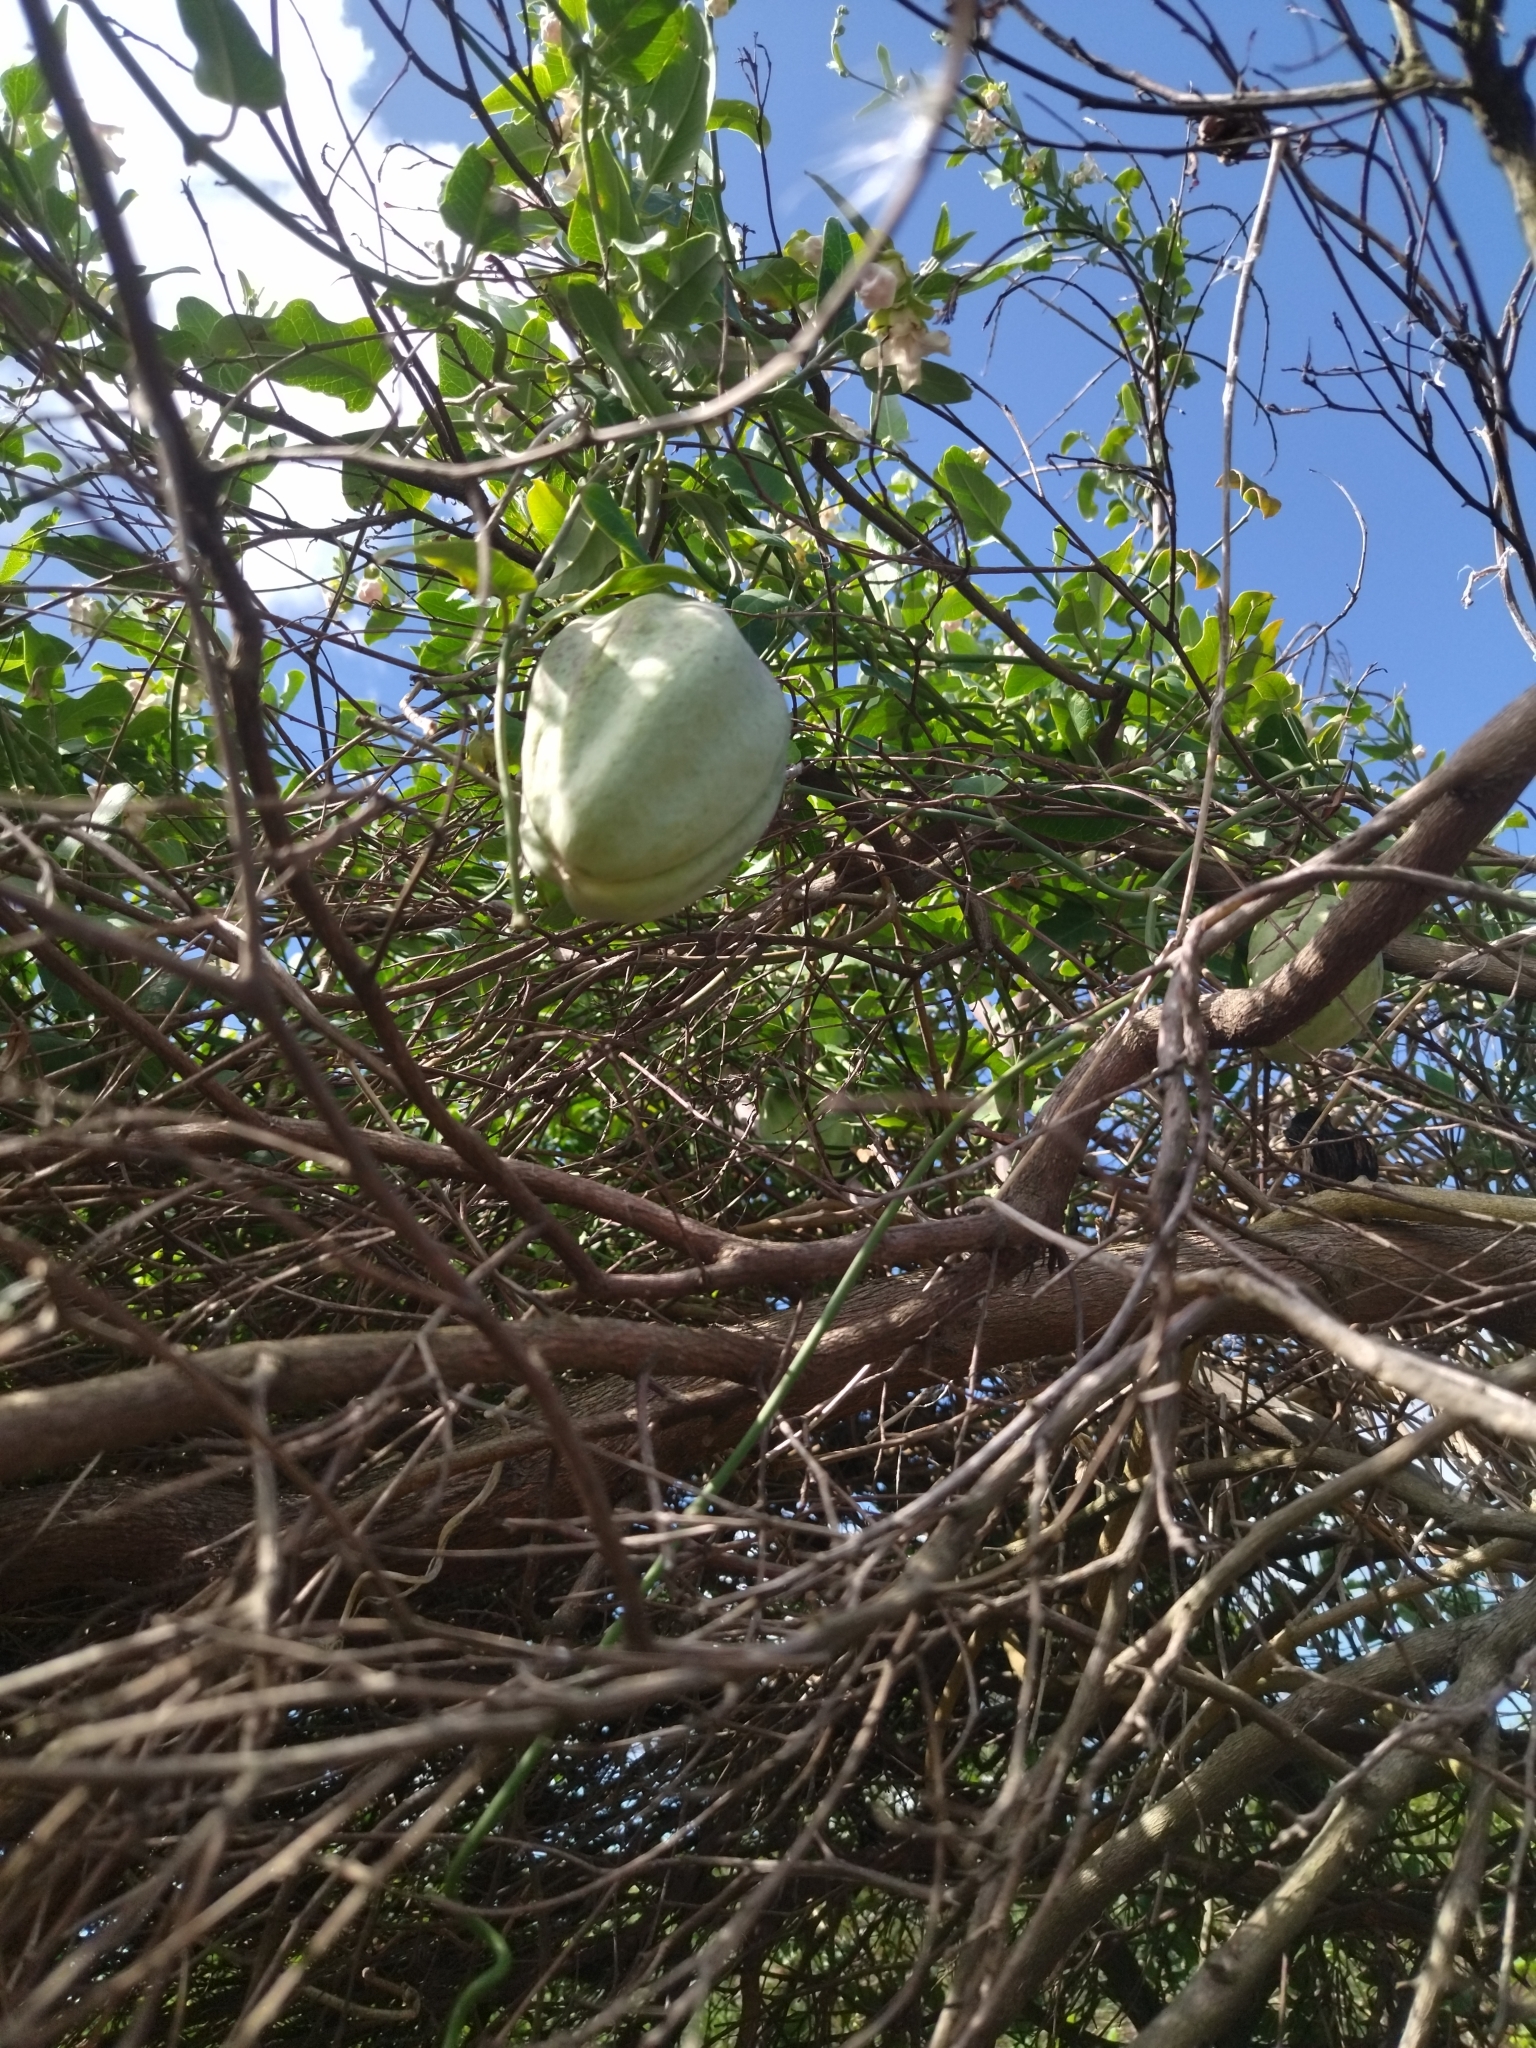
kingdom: Plantae
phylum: Tracheophyta
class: Magnoliopsida
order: Gentianales
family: Apocynaceae
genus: Araujia
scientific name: Araujia sericifera
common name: White bladderflower
